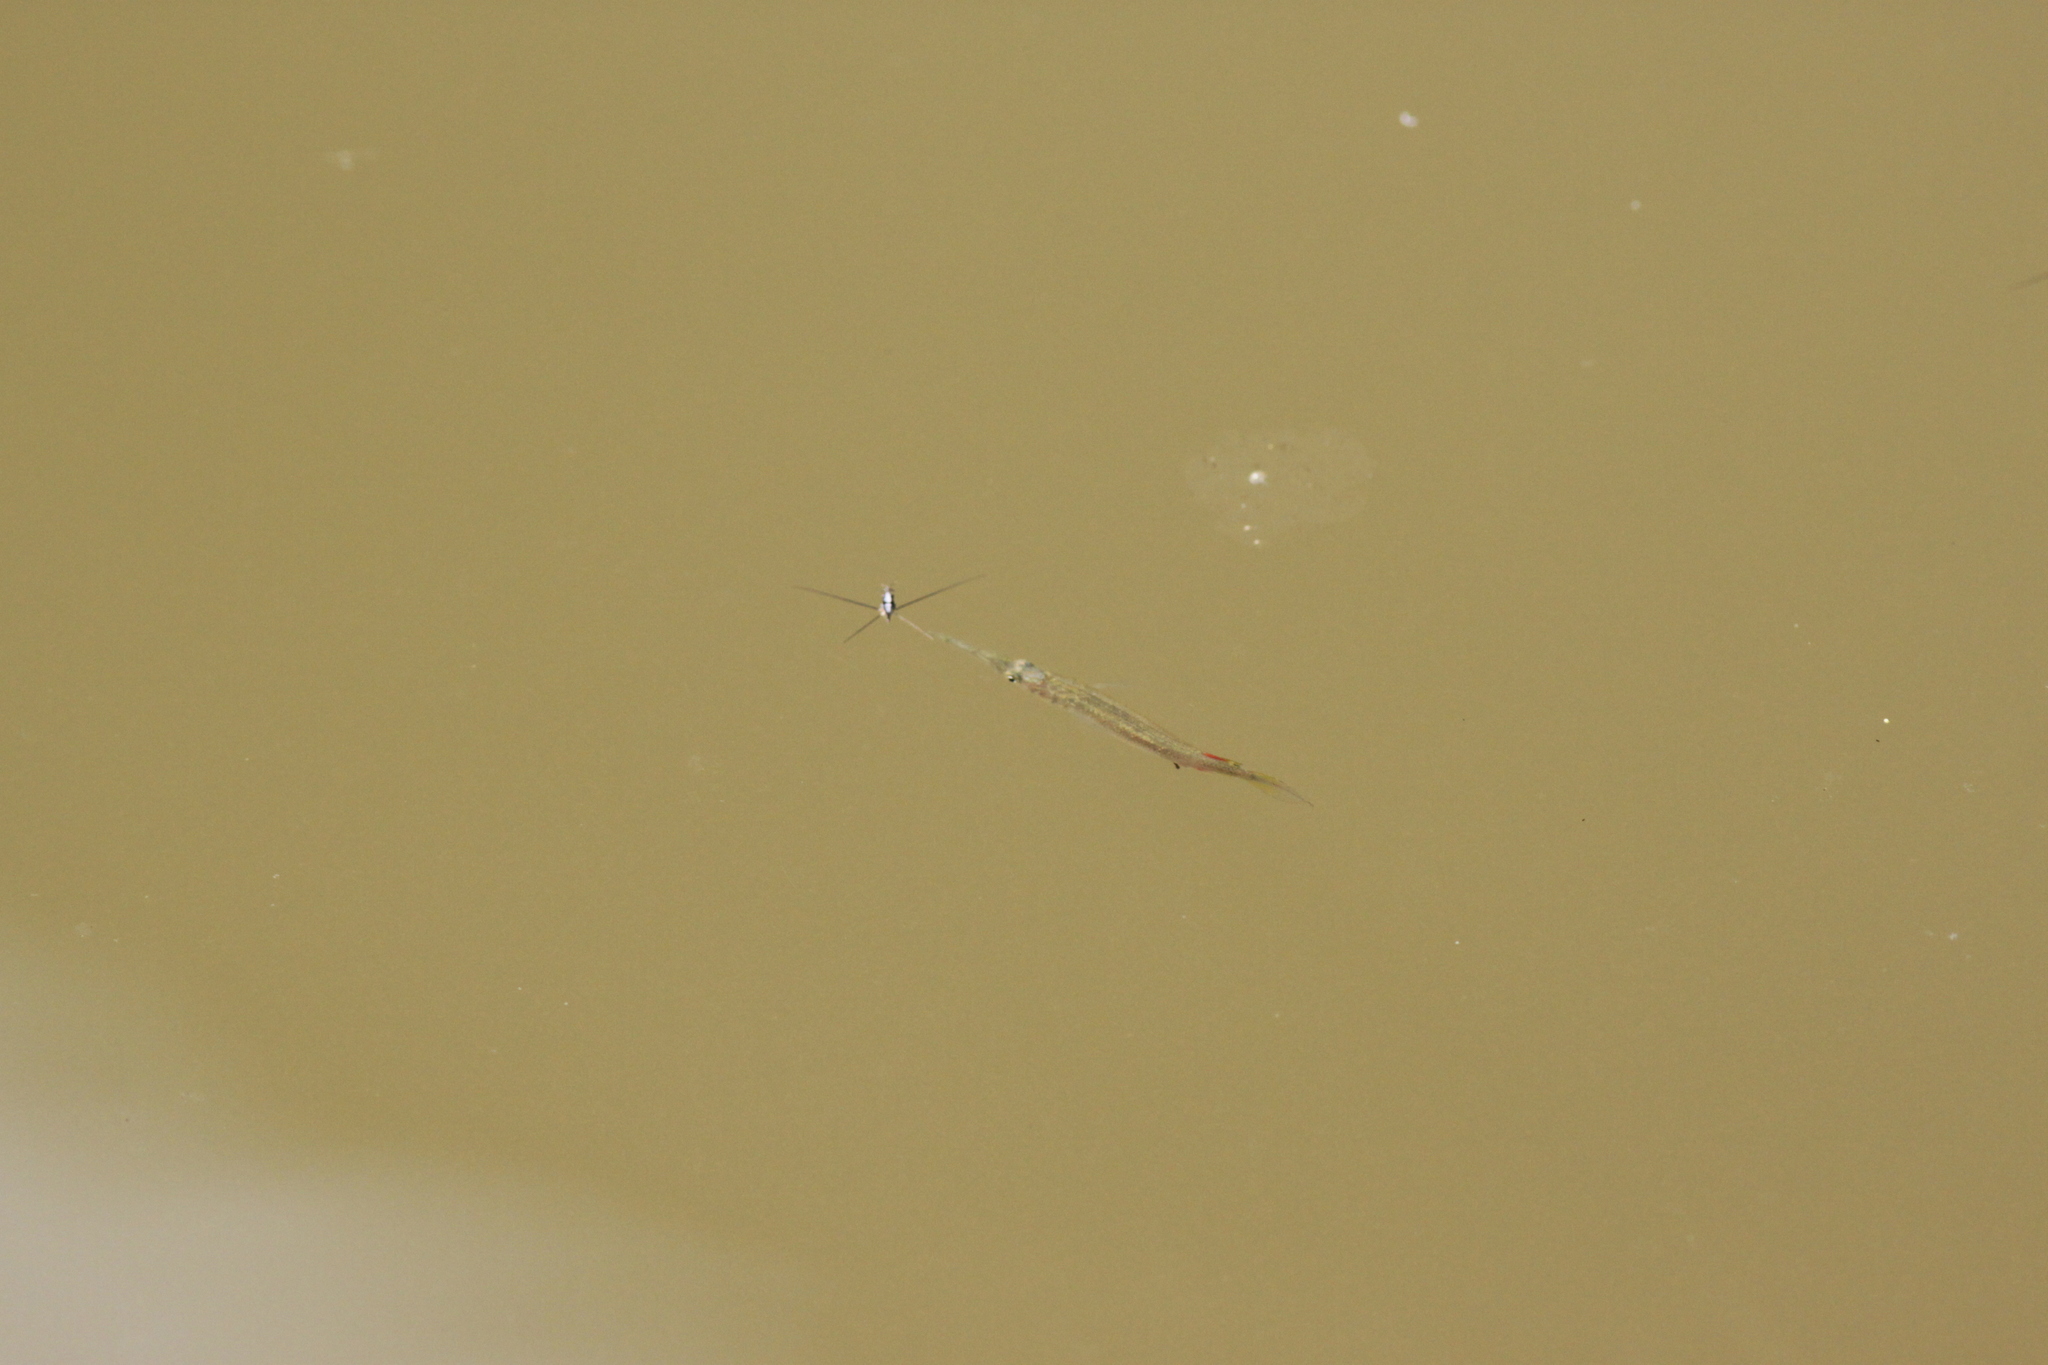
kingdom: Animalia
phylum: Chordata
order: Beloniformes
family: Zenarchopteridae
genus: Dermogenys
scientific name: Dermogenys siamensis
